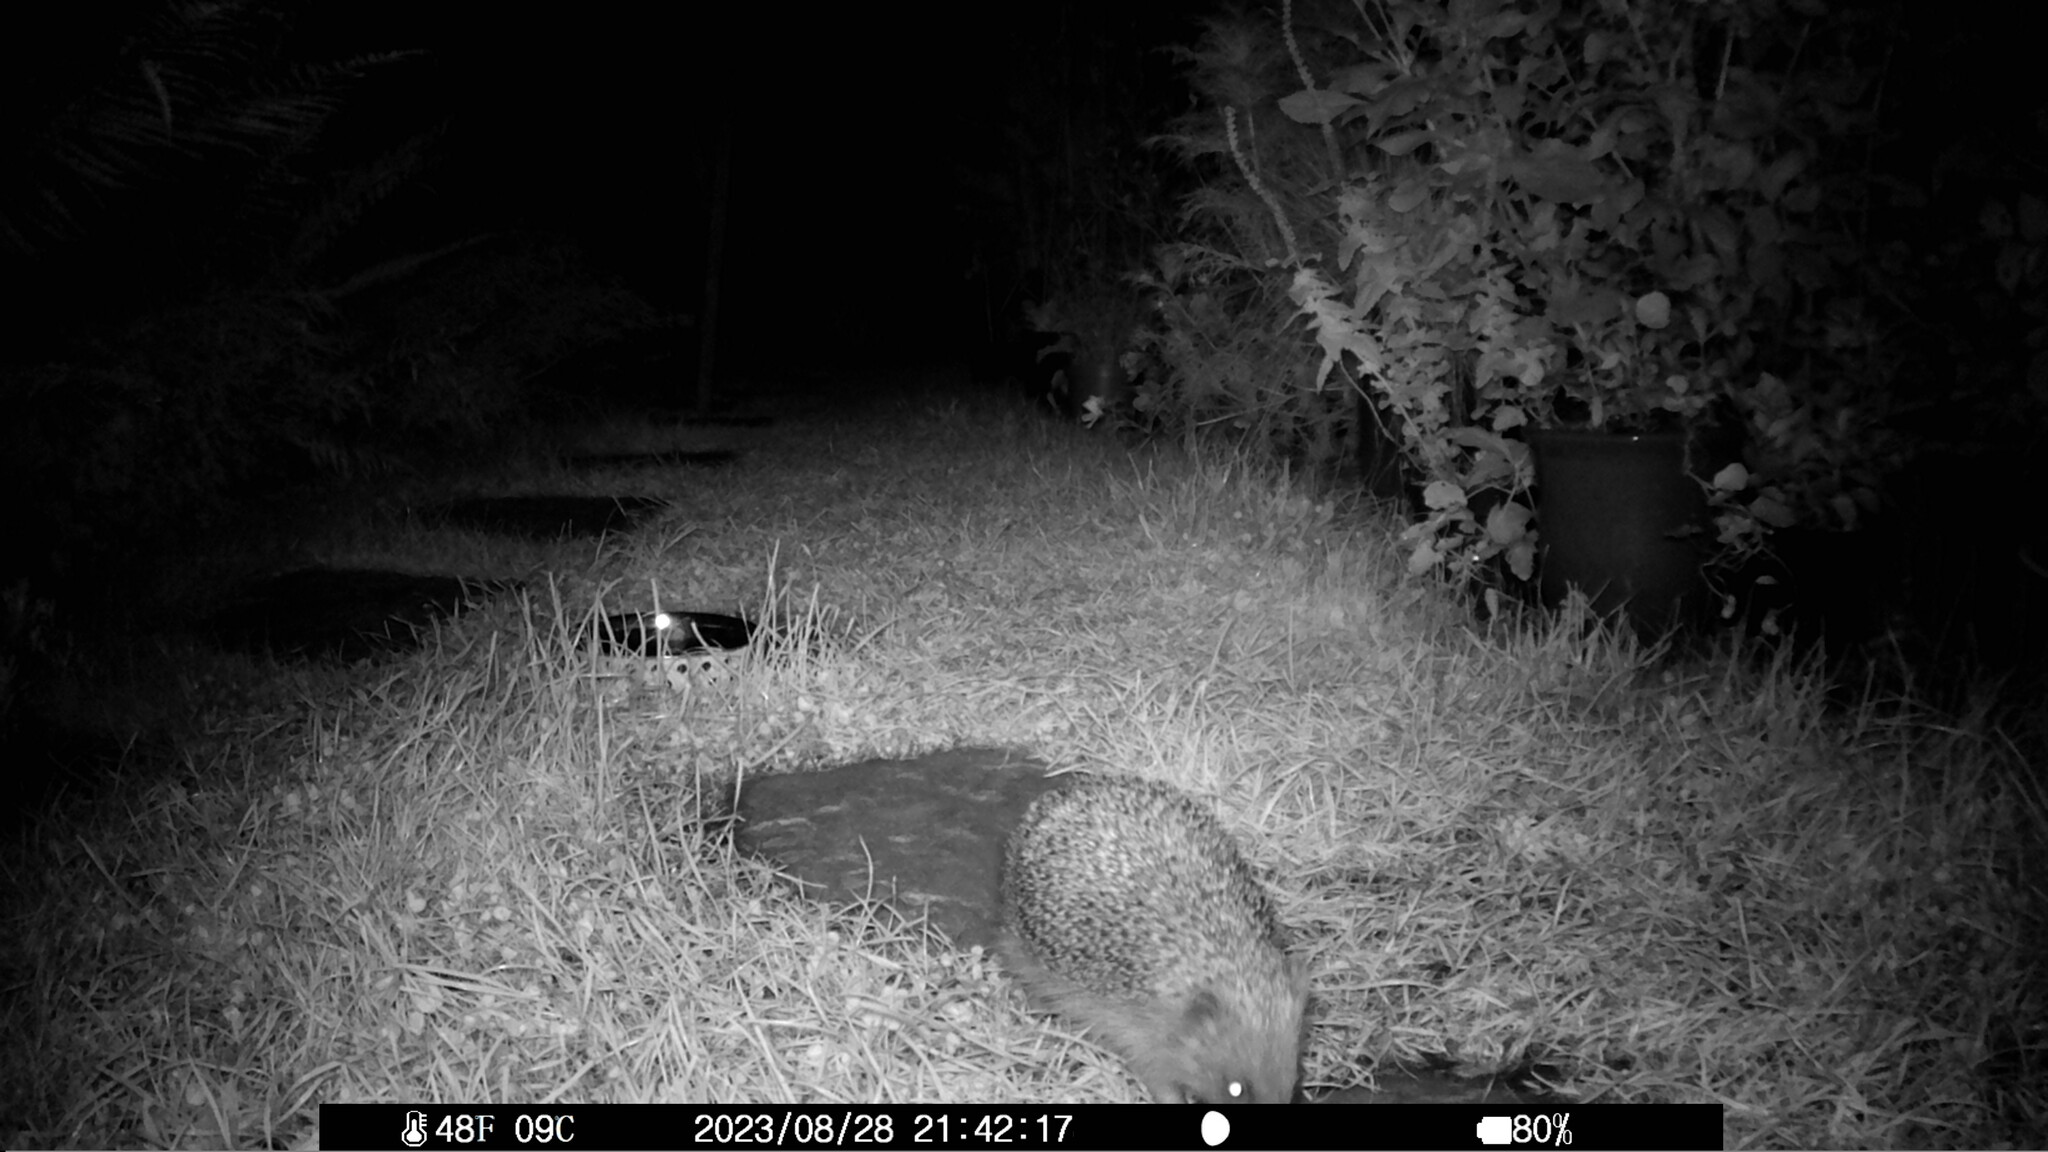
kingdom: Animalia
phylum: Chordata
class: Mammalia
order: Erinaceomorpha
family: Erinaceidae
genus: Erinaceus
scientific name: Erinaceus europaeus
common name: West european hedgehog
